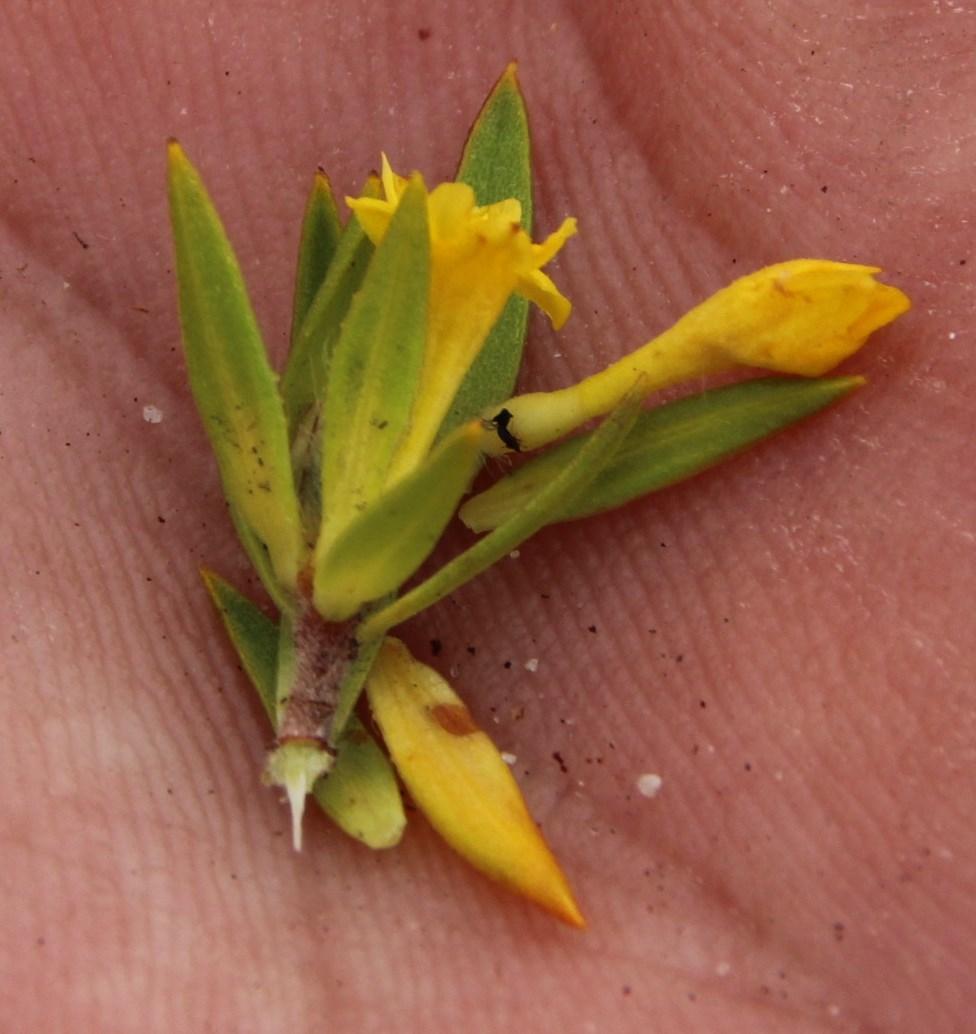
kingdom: Plantae
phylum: Tracheophyta
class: Magnoliopsida
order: Malvales
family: Thymelaeaceae
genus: Gnidia
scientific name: Gnidia juniperifolia
